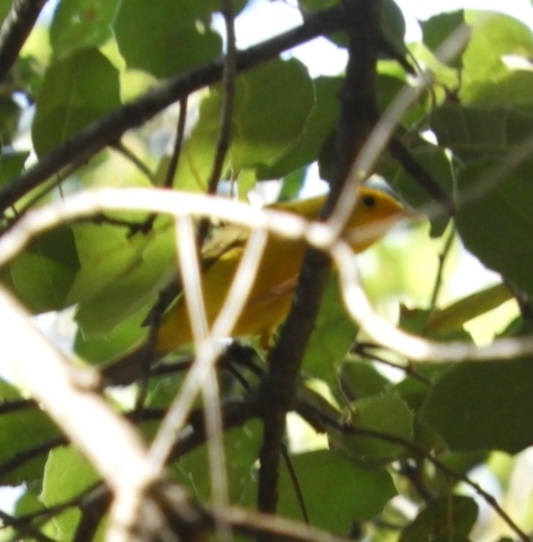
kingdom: Animalia
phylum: Chordata
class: Aves
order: Passeriformes
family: Parulidae
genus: Cardellina
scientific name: Cardellina pusilla
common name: Wilson's warbler
